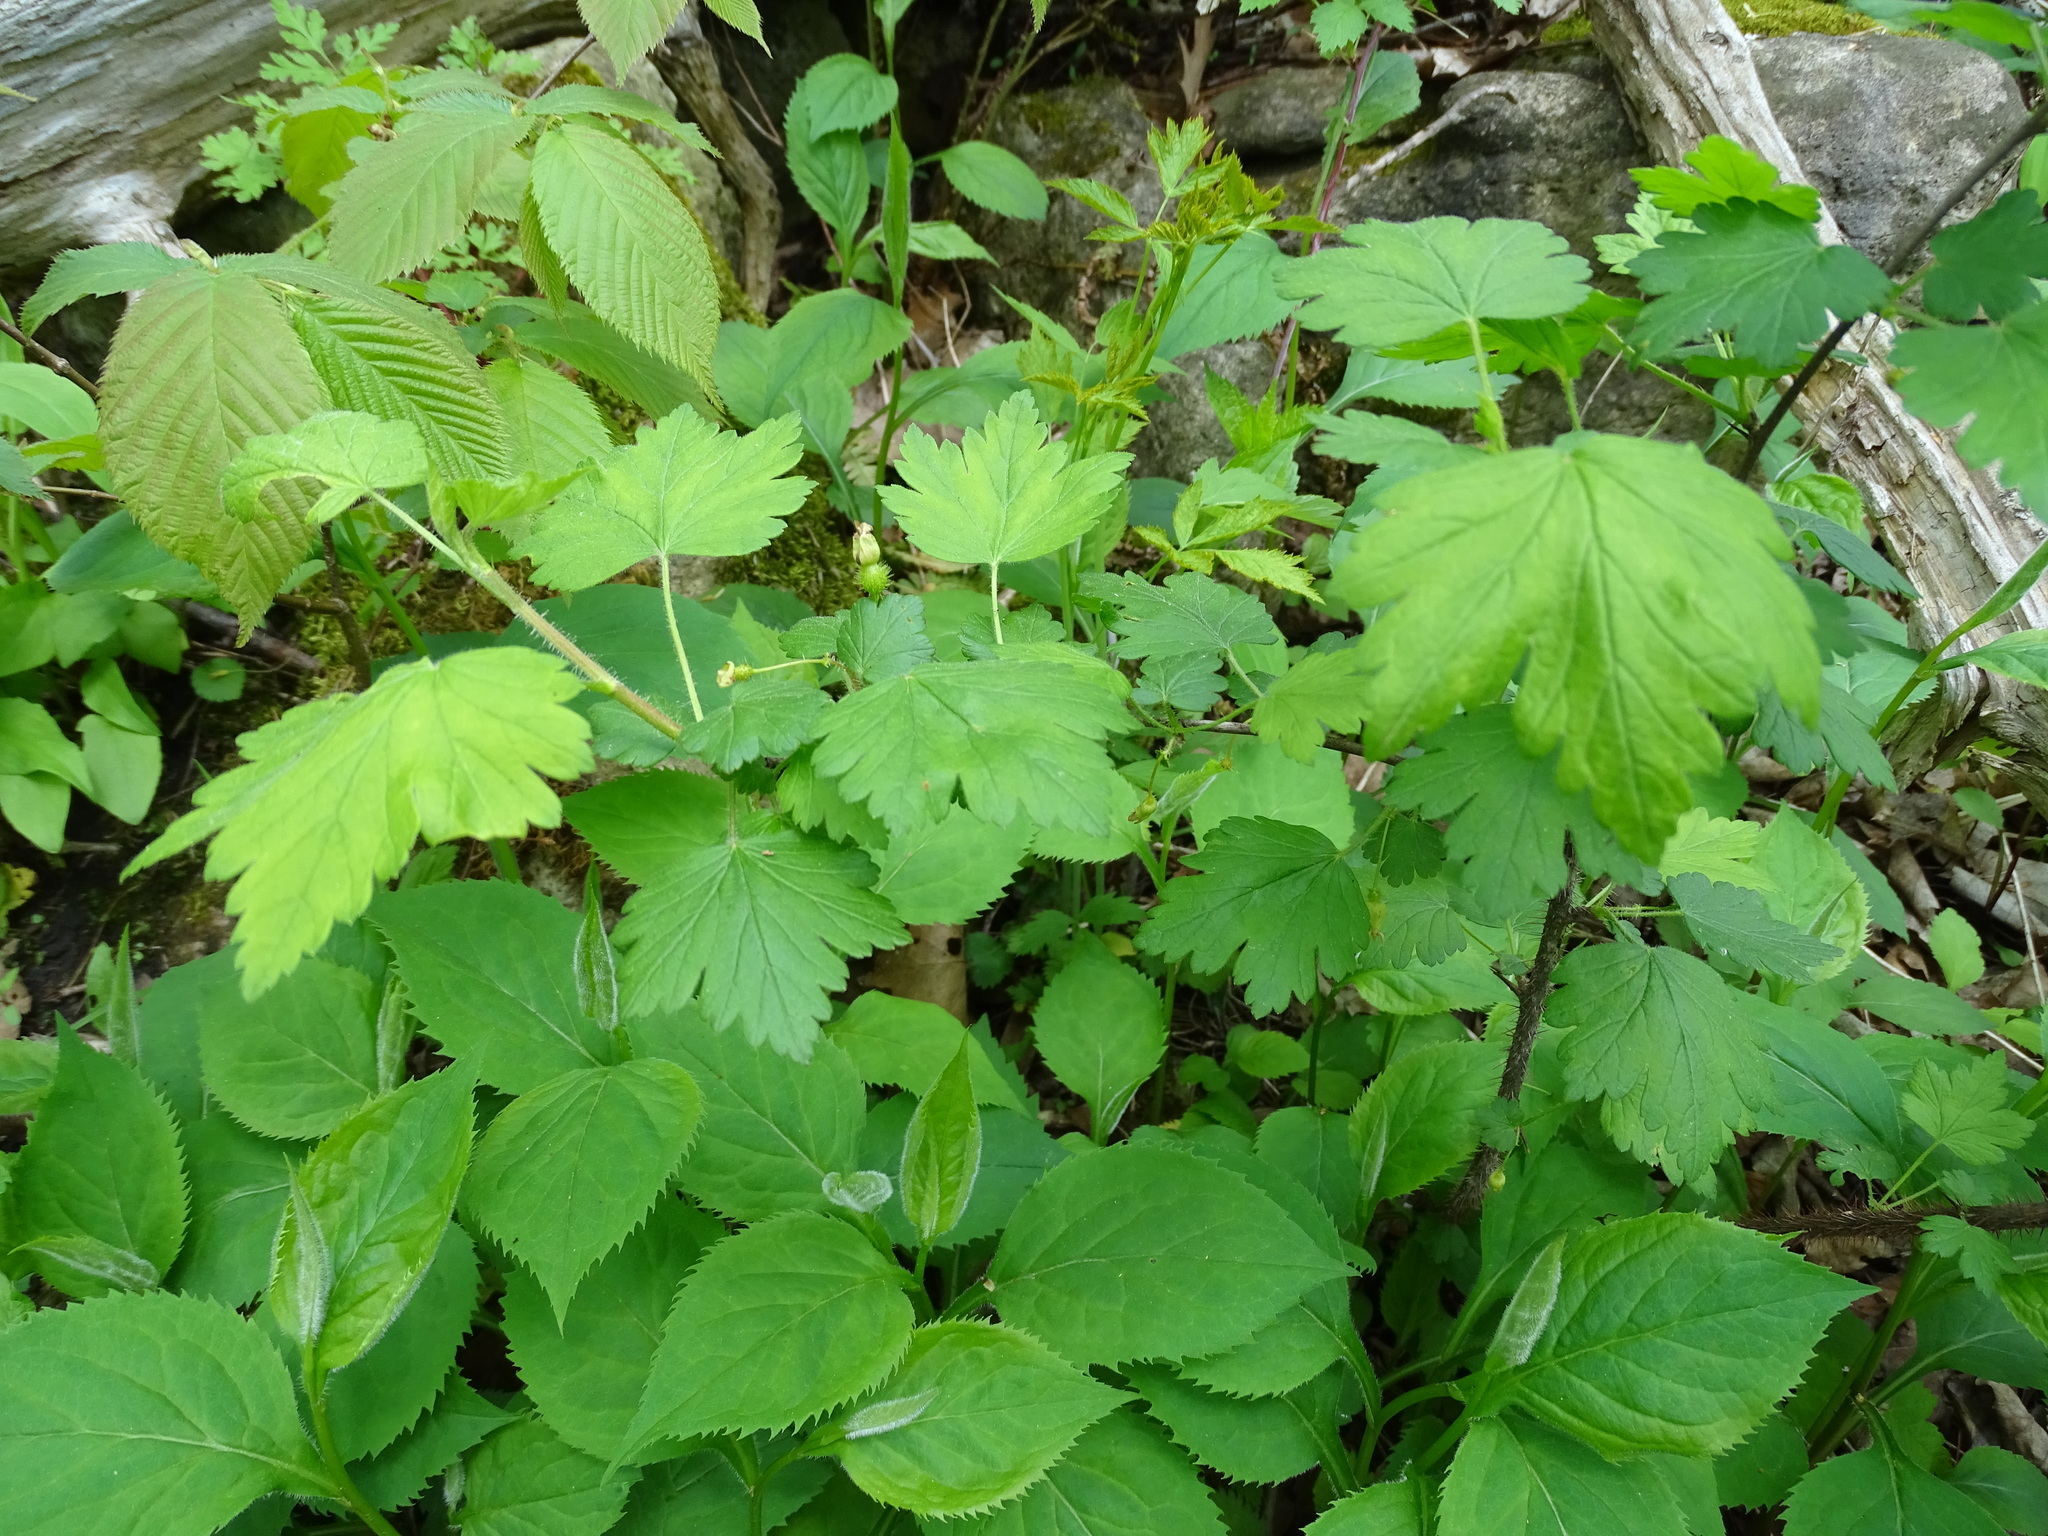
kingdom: Plantae
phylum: Tracheophyta
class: Magnoliopsida
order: Saxifragales
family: Grossulariaceae
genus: Ribes
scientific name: Ribes cynosbati
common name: American gooseberry
